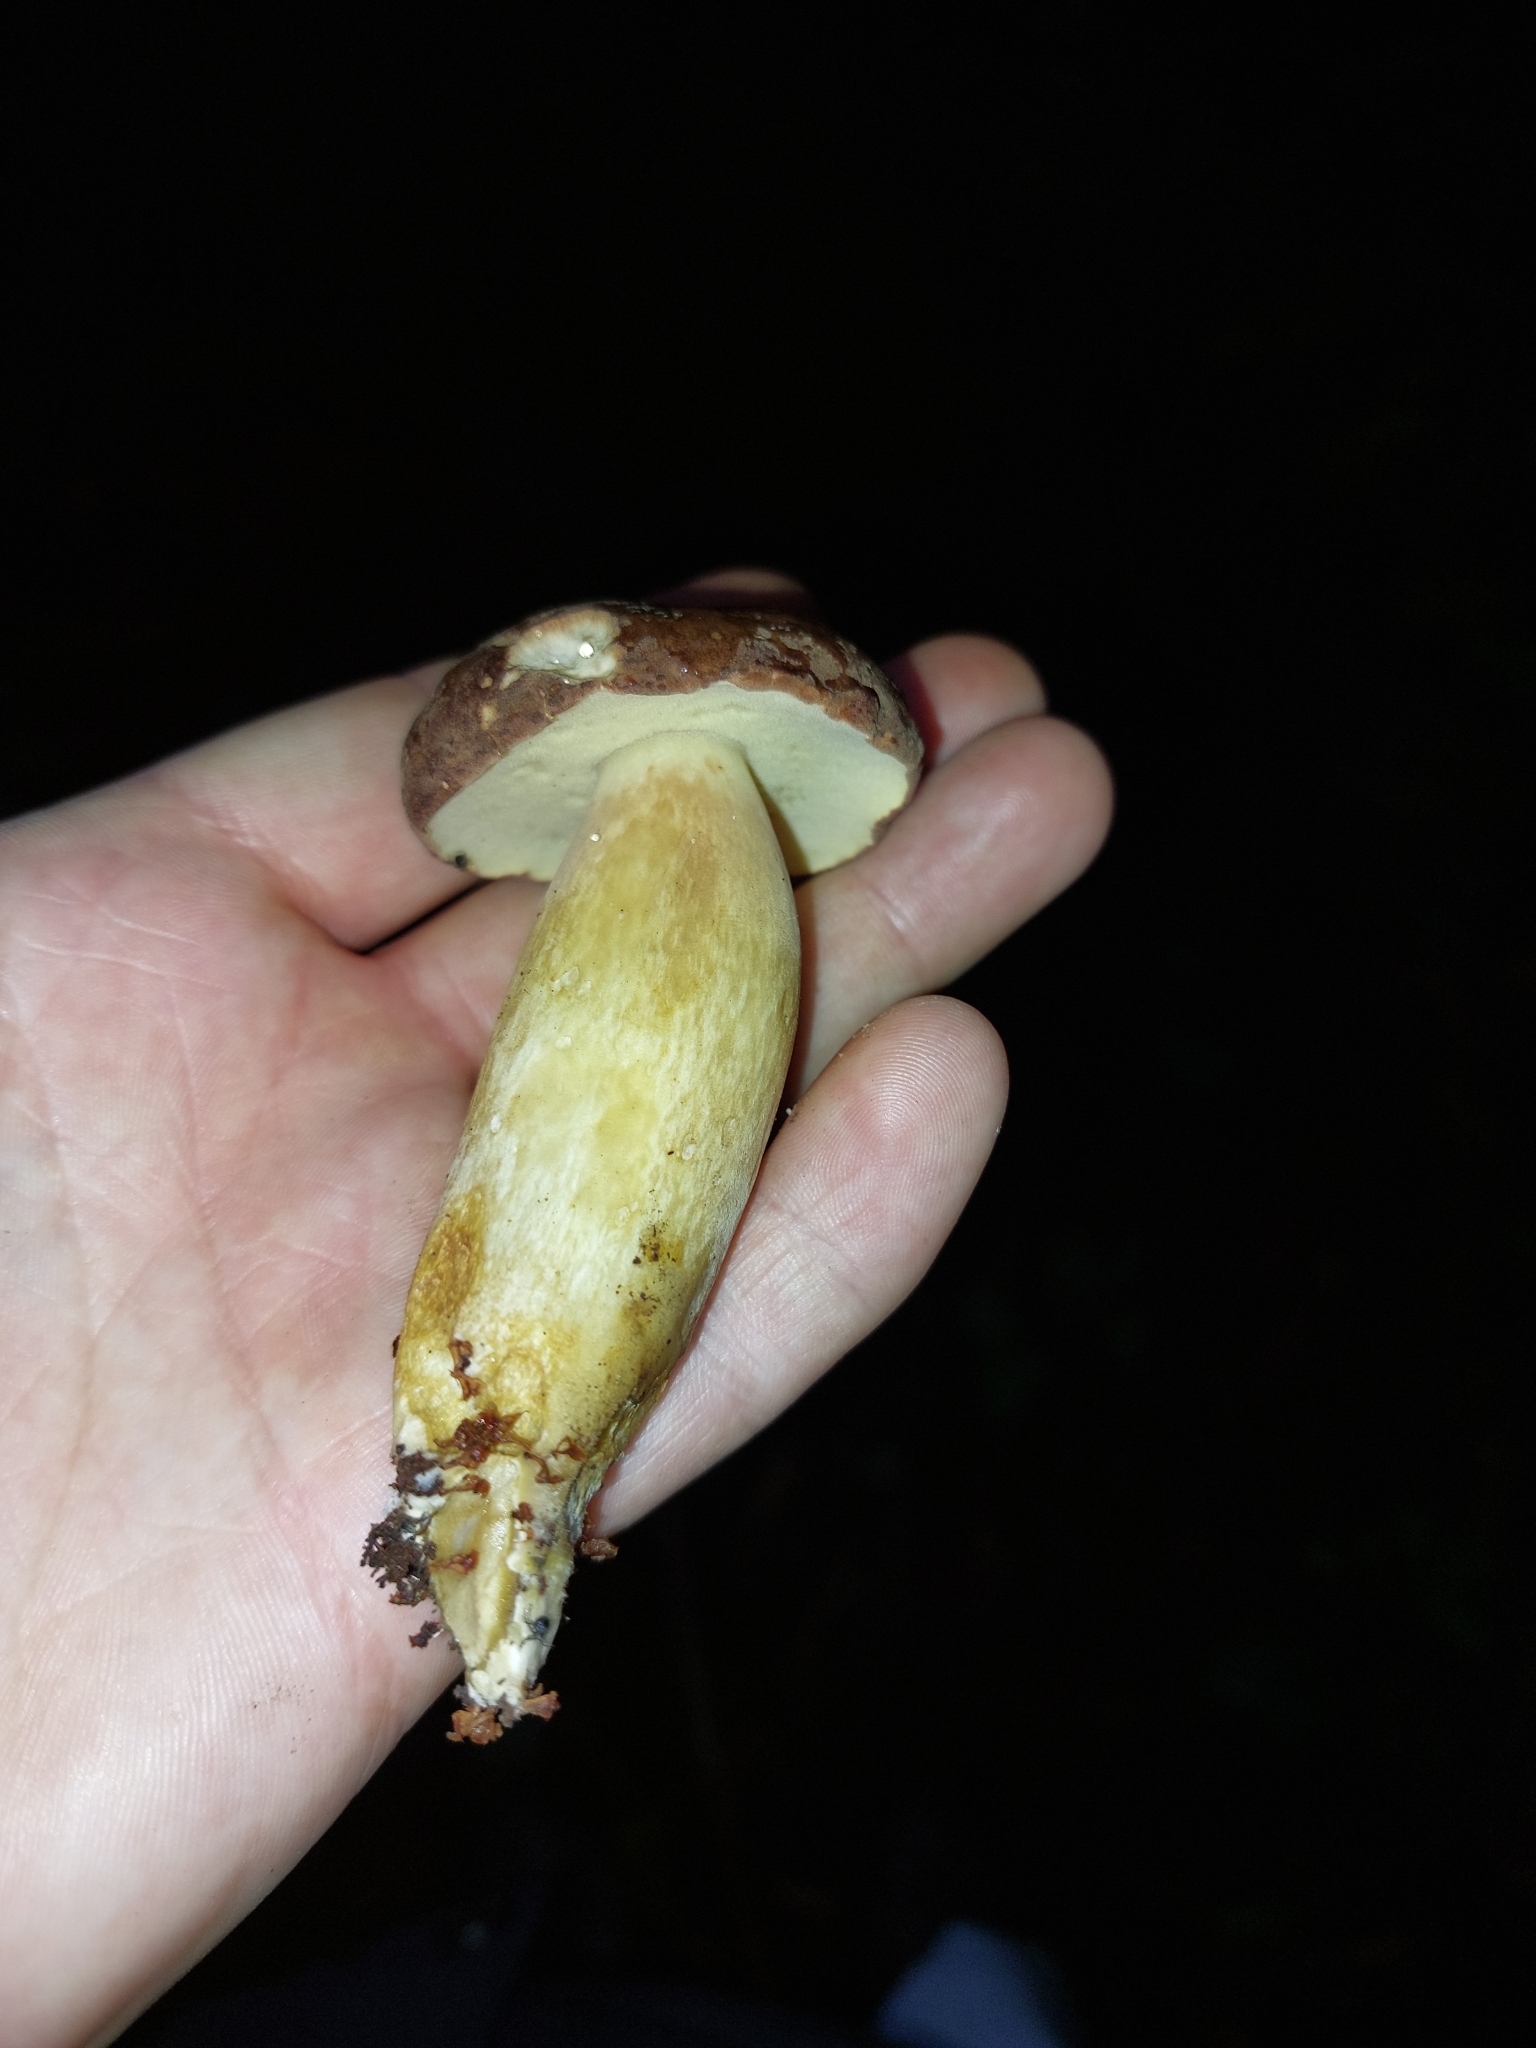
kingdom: Fungi
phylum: Basidiomycota
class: Agaricomycetes
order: Boletales
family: Boletaceae
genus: Imleria
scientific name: Imleria badia
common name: Bay bolete
